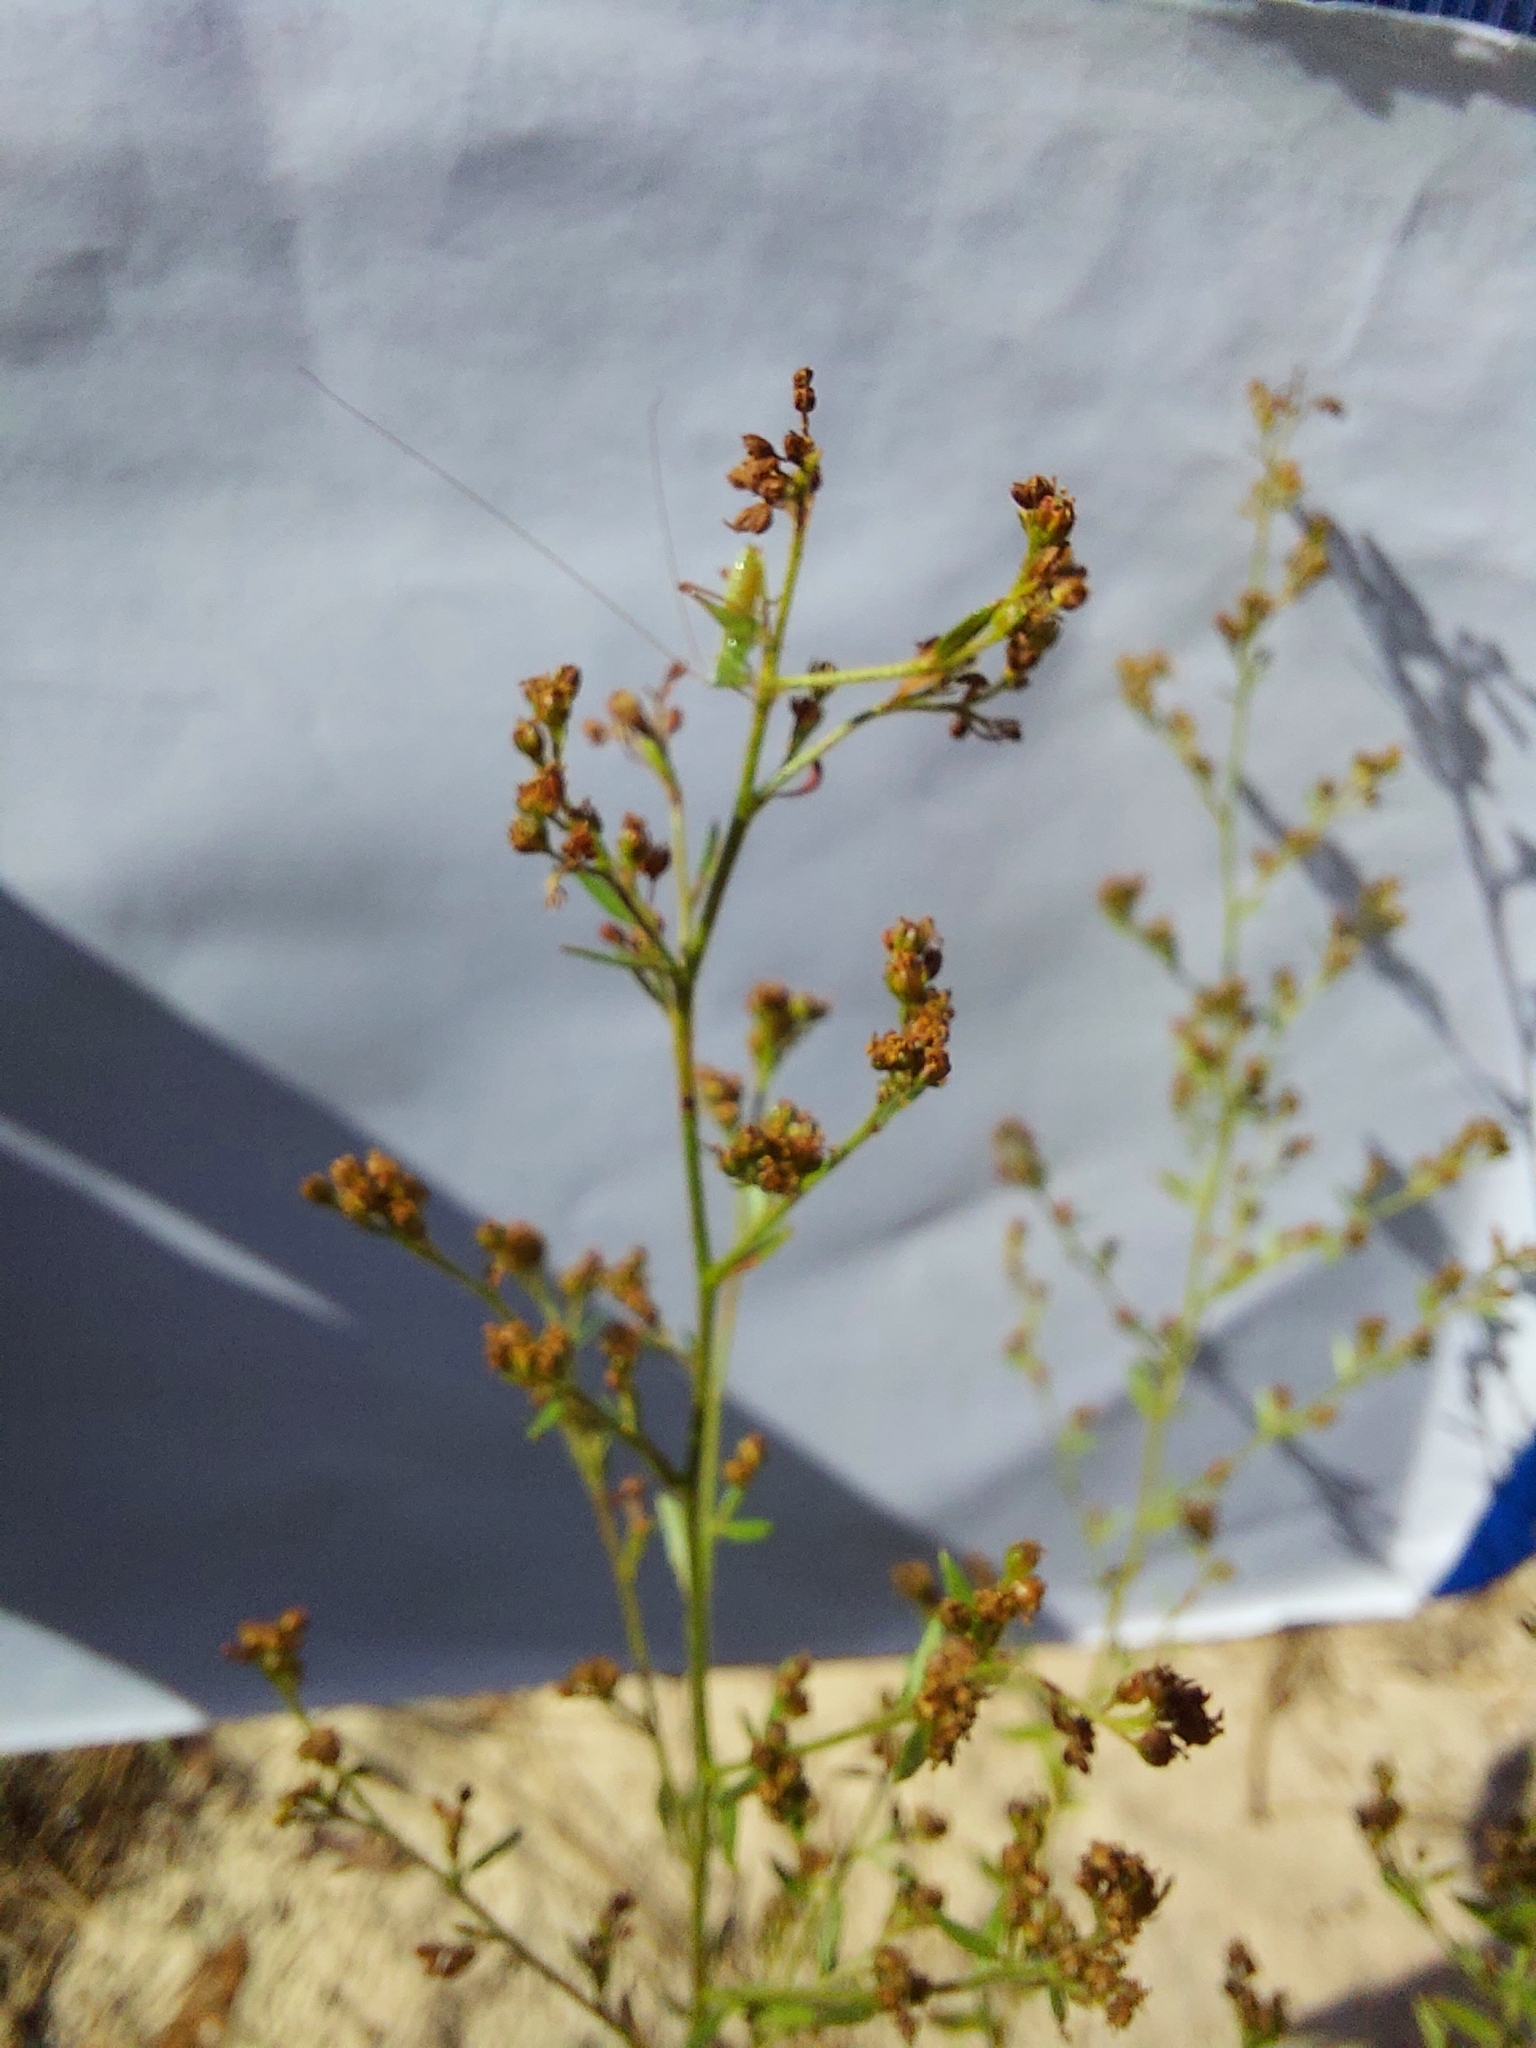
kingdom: Plantae
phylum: Tracheophyta
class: Magnoliopsida
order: Malvales
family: Cistaceae
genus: Lechea
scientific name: Lechea mucronata
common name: Hairy pinweed
